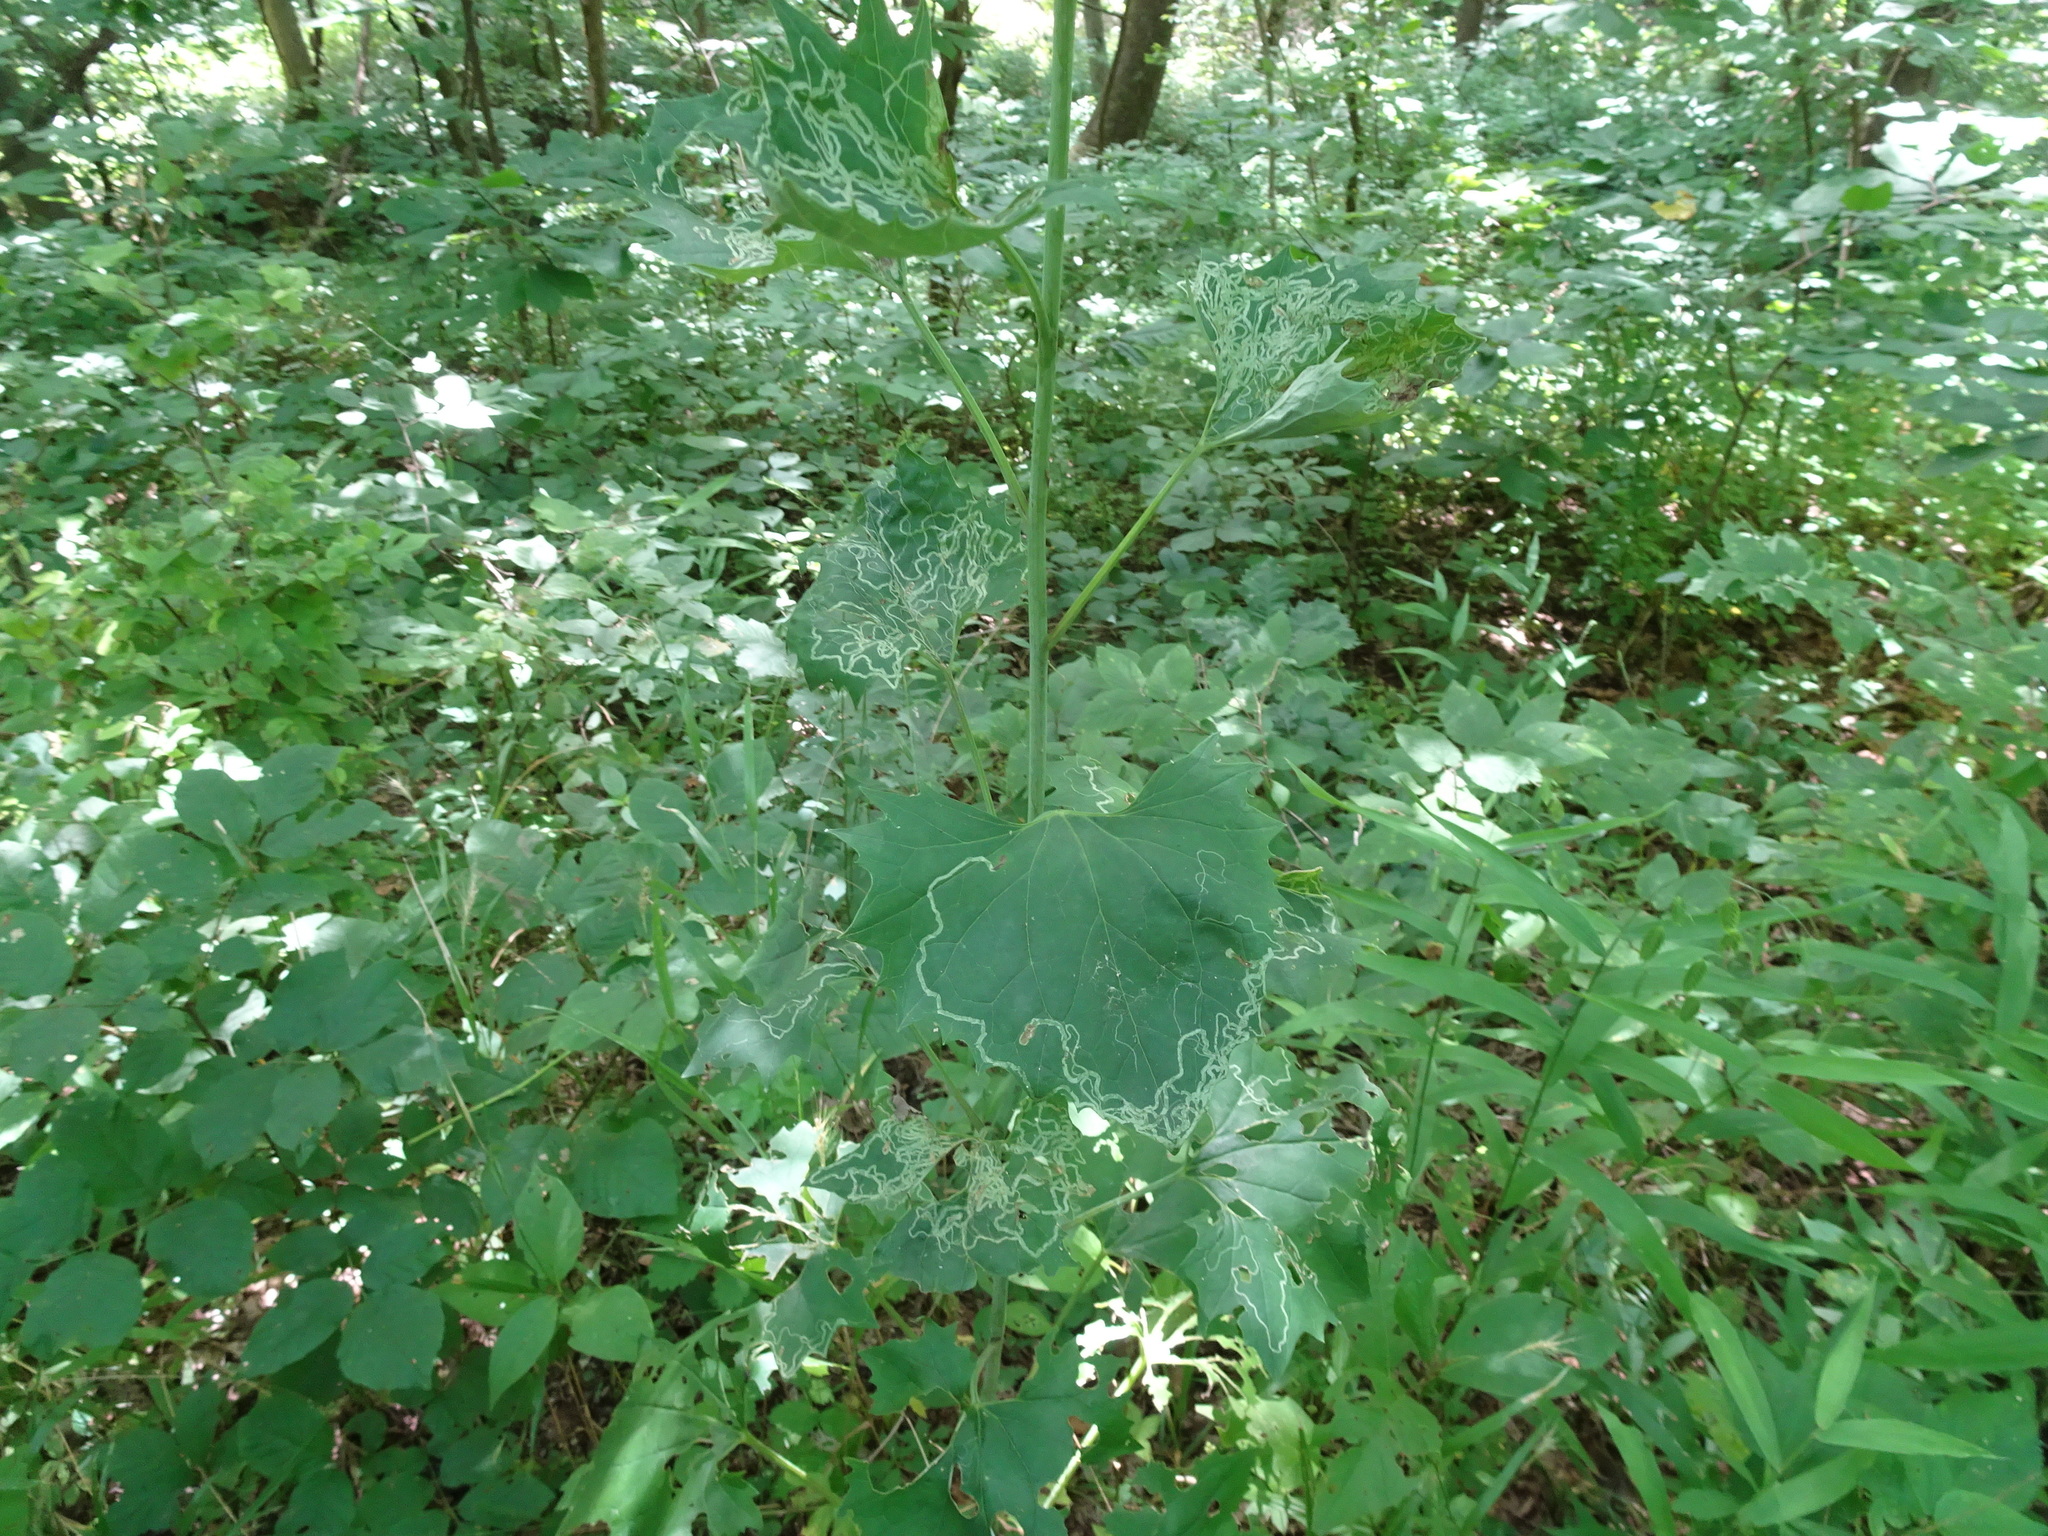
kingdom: Plantae
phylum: Tracheophyta
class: Magnoliopsida
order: Asterales
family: Asteraceae
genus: Arnoglossum
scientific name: Arnoglossum atriplicifolium
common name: Pale indian-plantain
